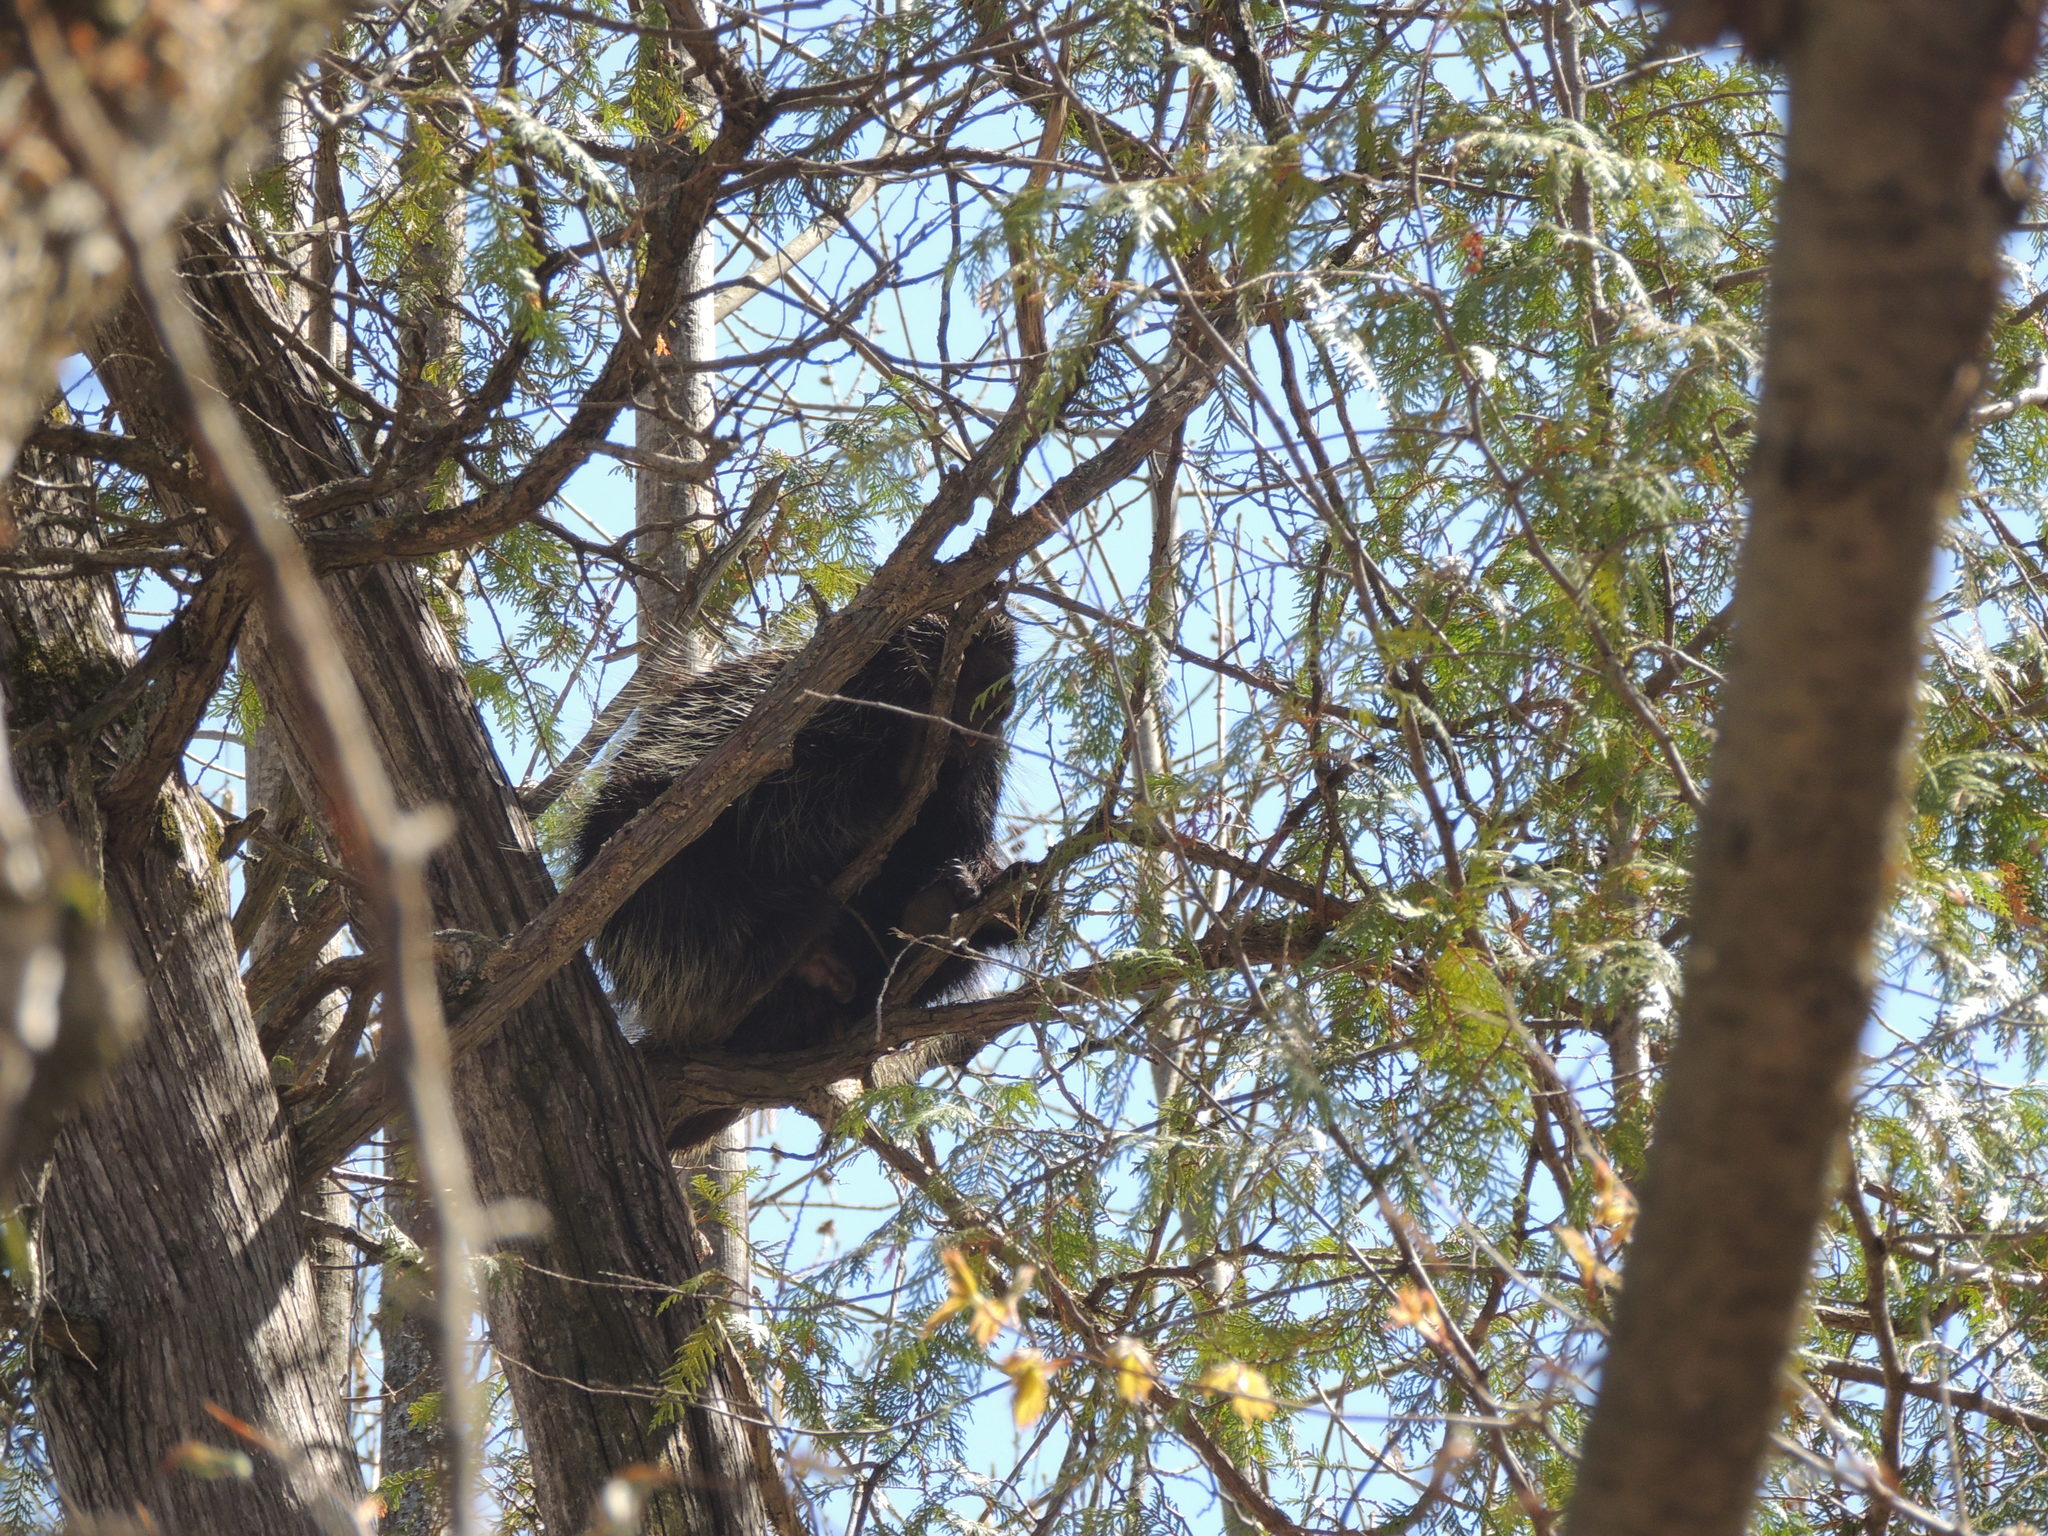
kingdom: Animalia
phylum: Chordata
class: Mammalia
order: Rodentia
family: Erethizontidae
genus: Erethizon
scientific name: Erethizon dorsatus
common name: North american porcupine
